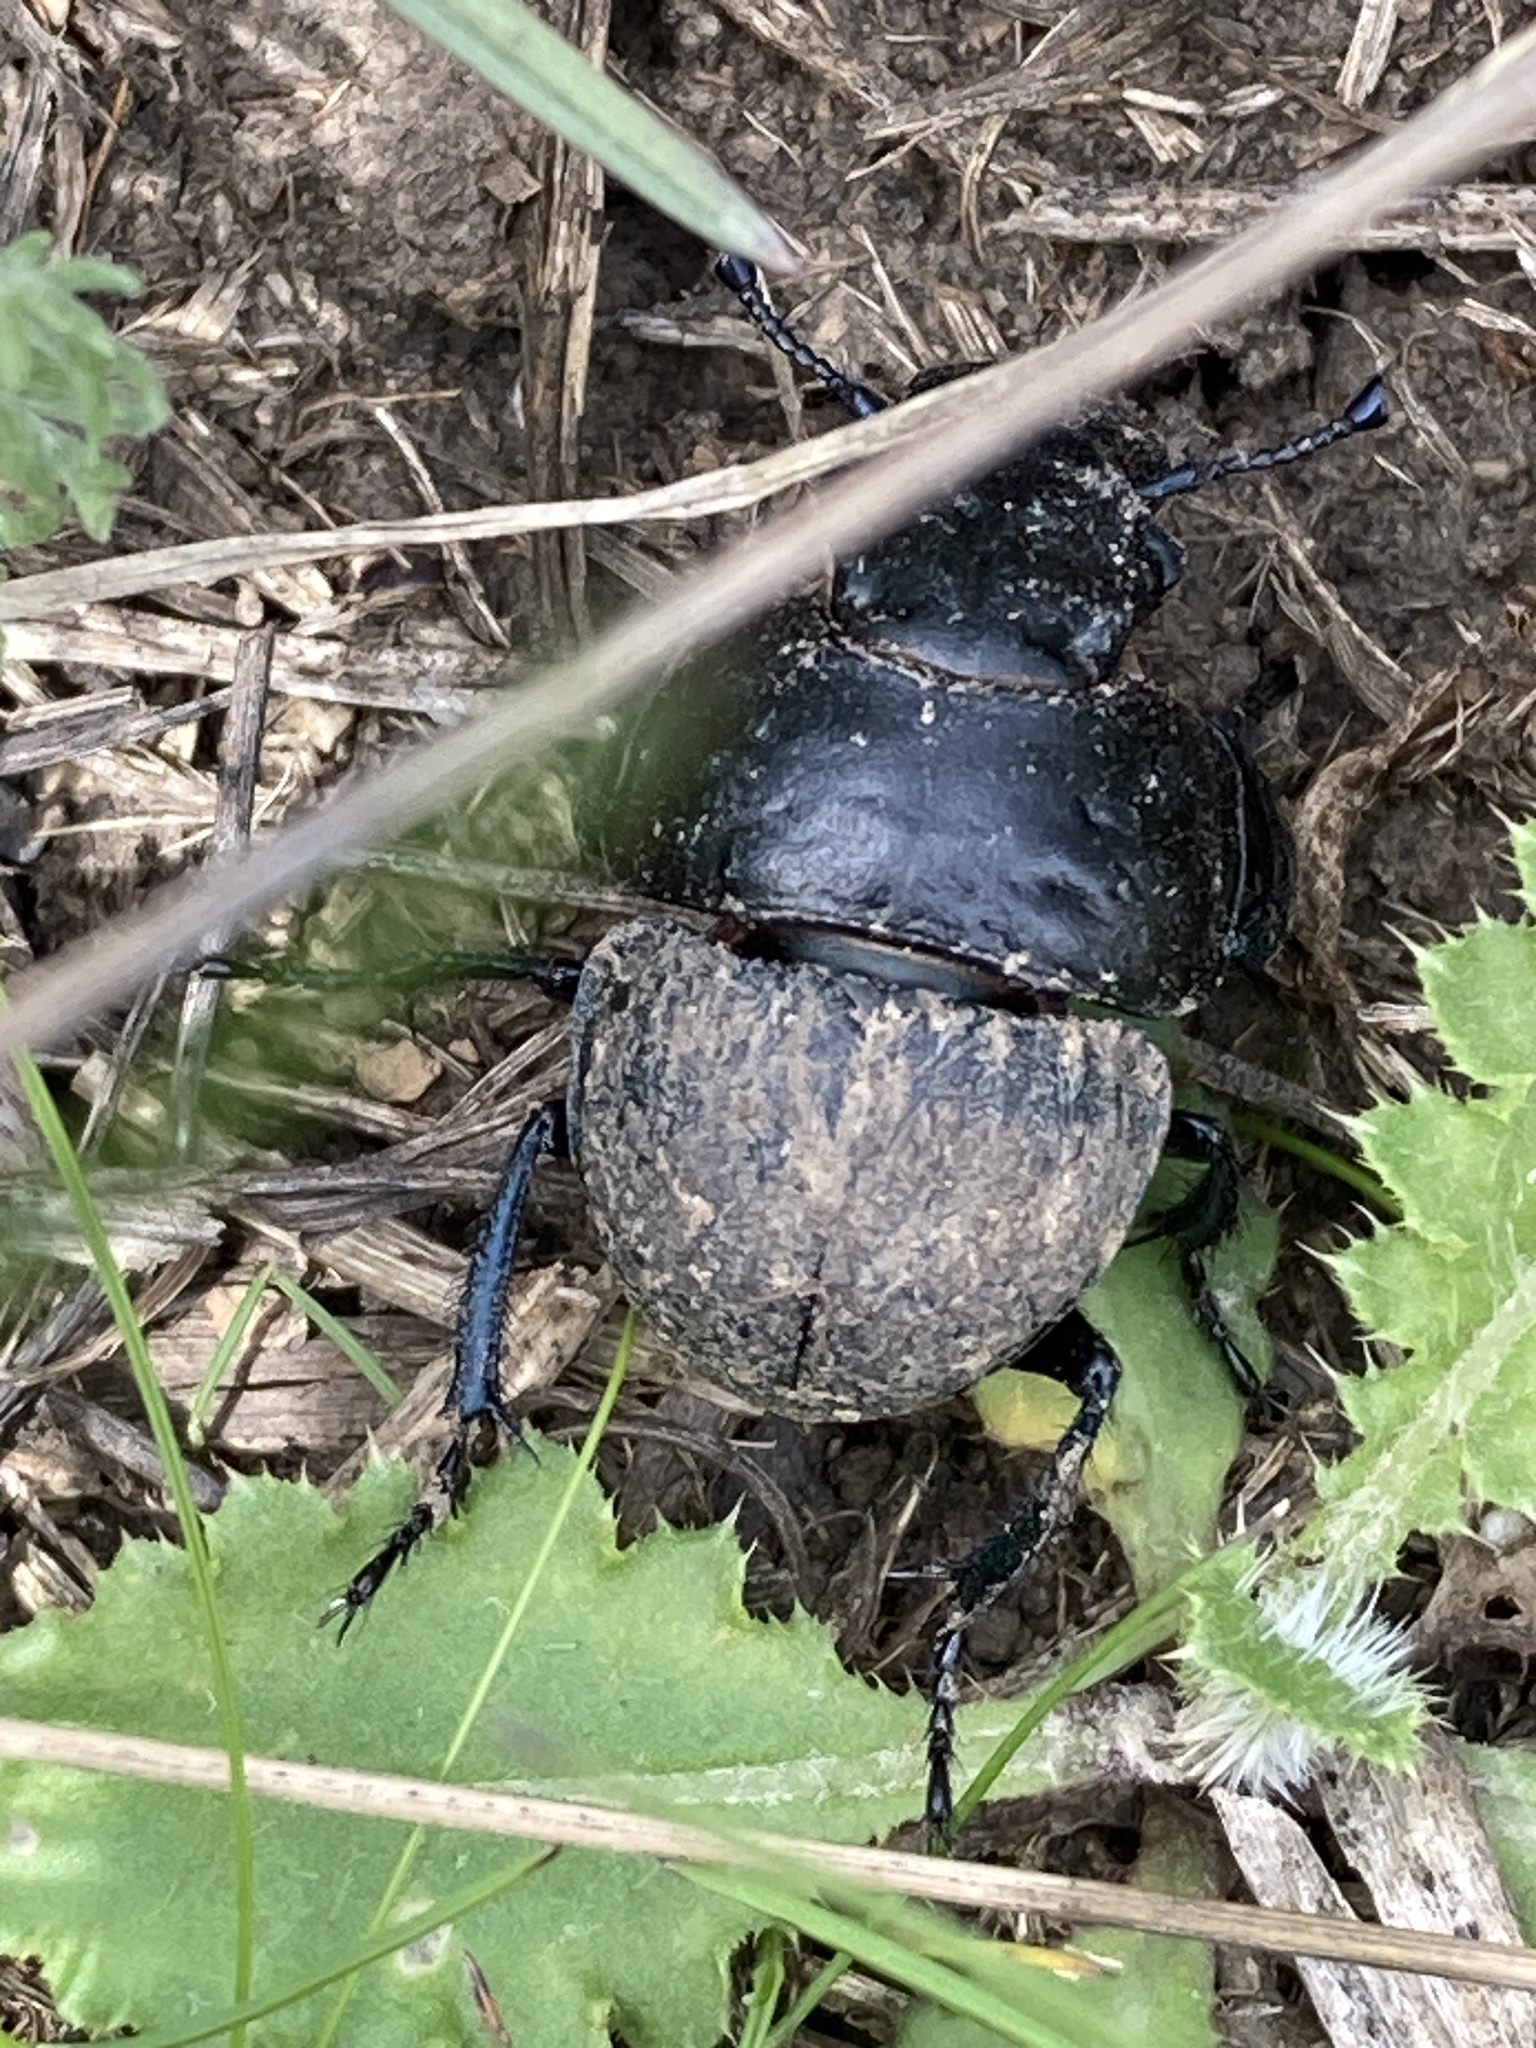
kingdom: Animalia
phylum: Arthropoda
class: Insecta
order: Coleoptera
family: Geotrupidae
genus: Lethrus
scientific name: Lethrus apterus
